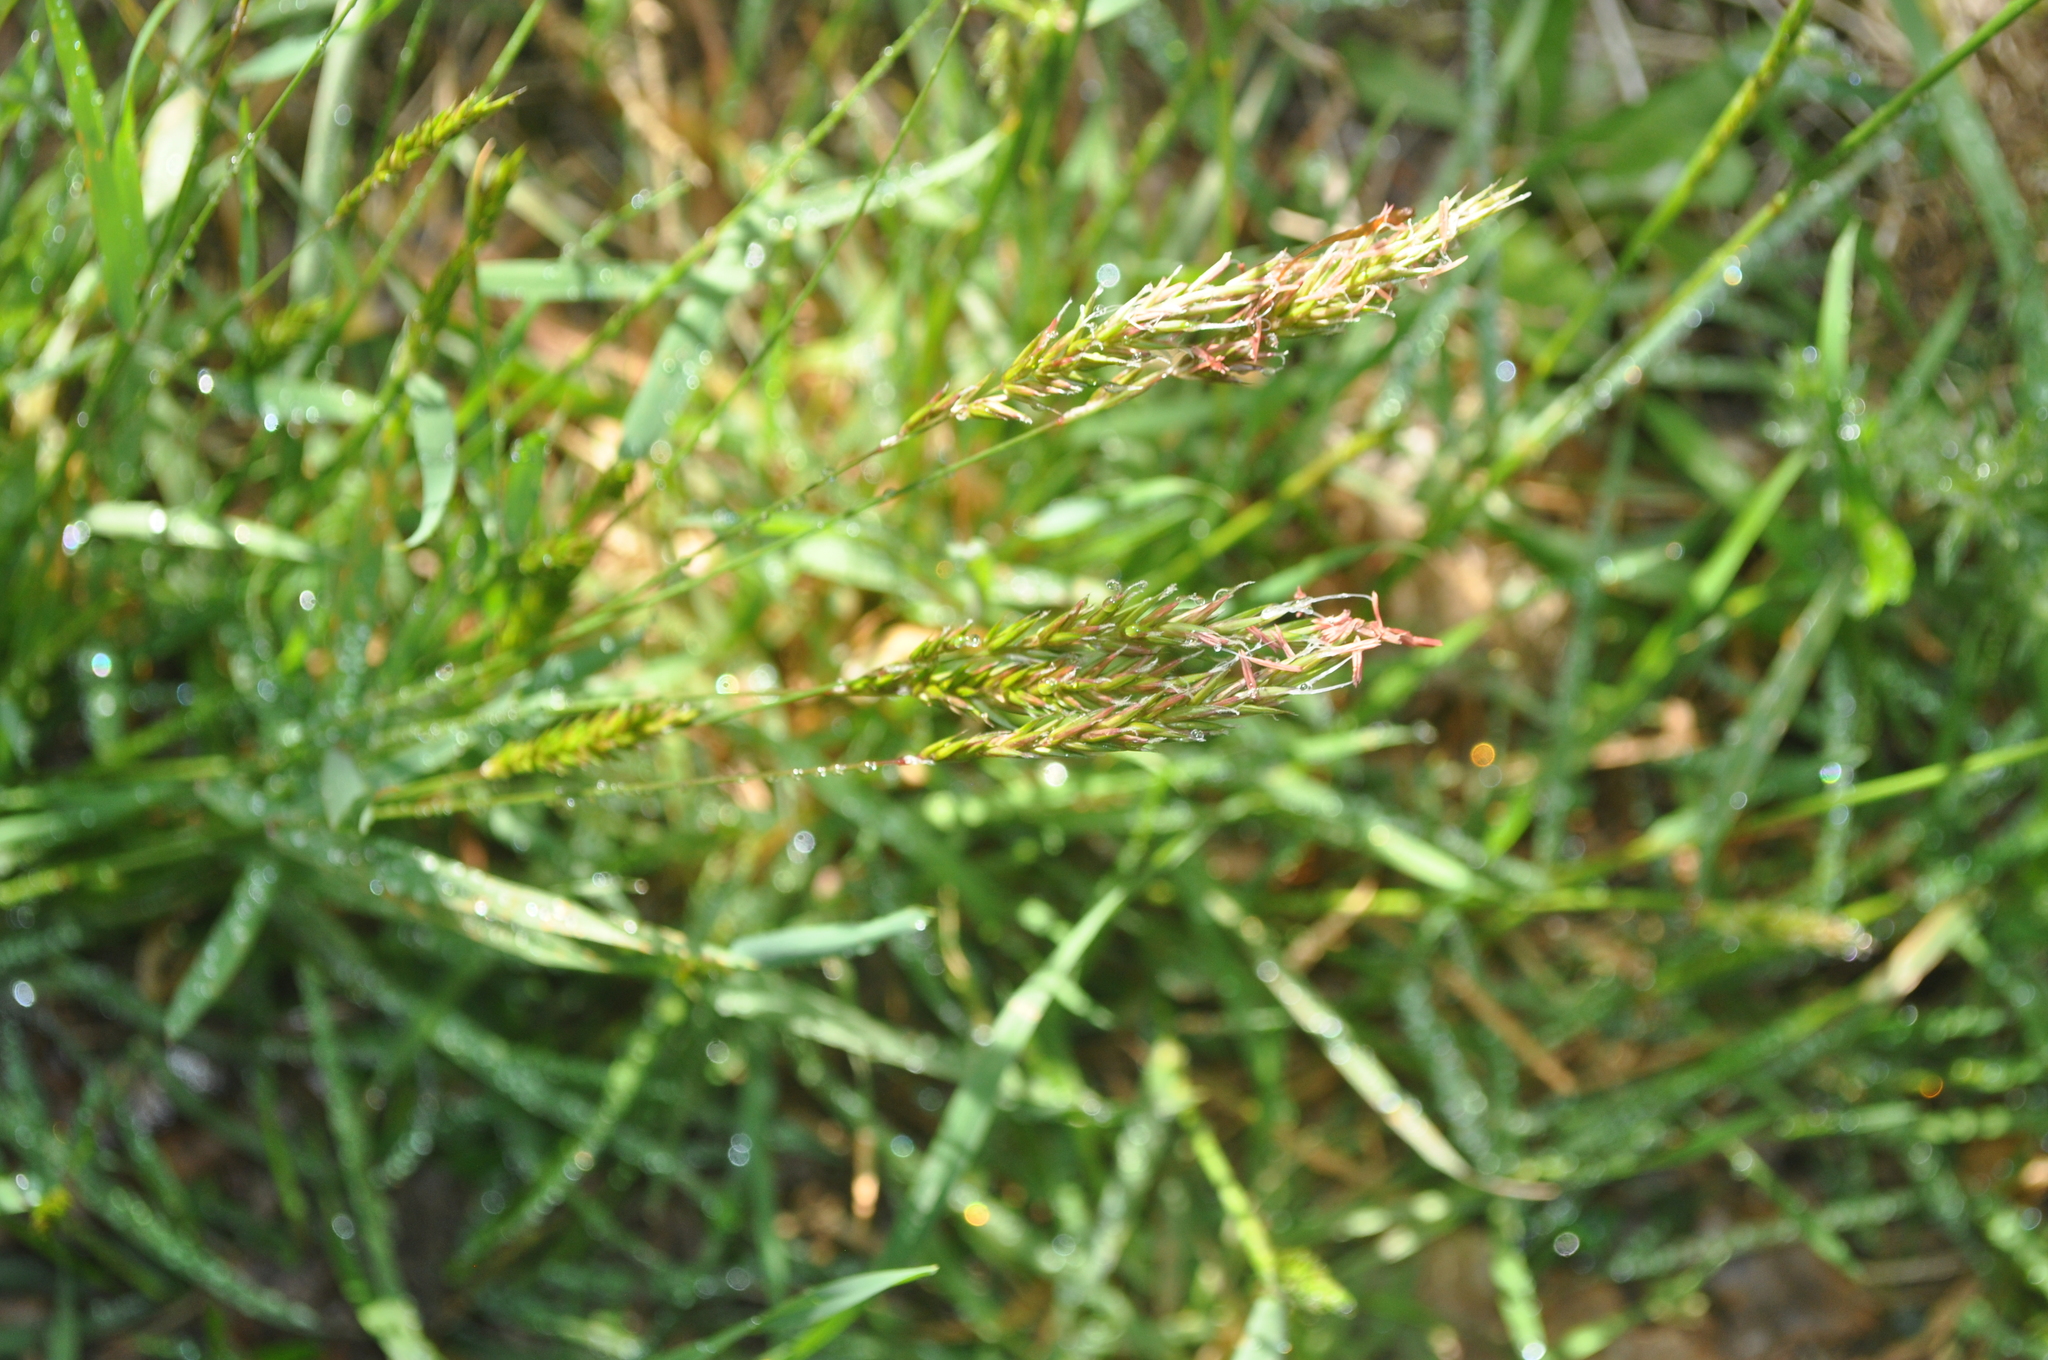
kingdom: Plantae
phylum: Tracheophyta
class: Liliopsida
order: Poales
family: Poaceae
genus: Anthoxanthum
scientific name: Anthoxanthum odoratum
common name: Sweet vernalgrass
